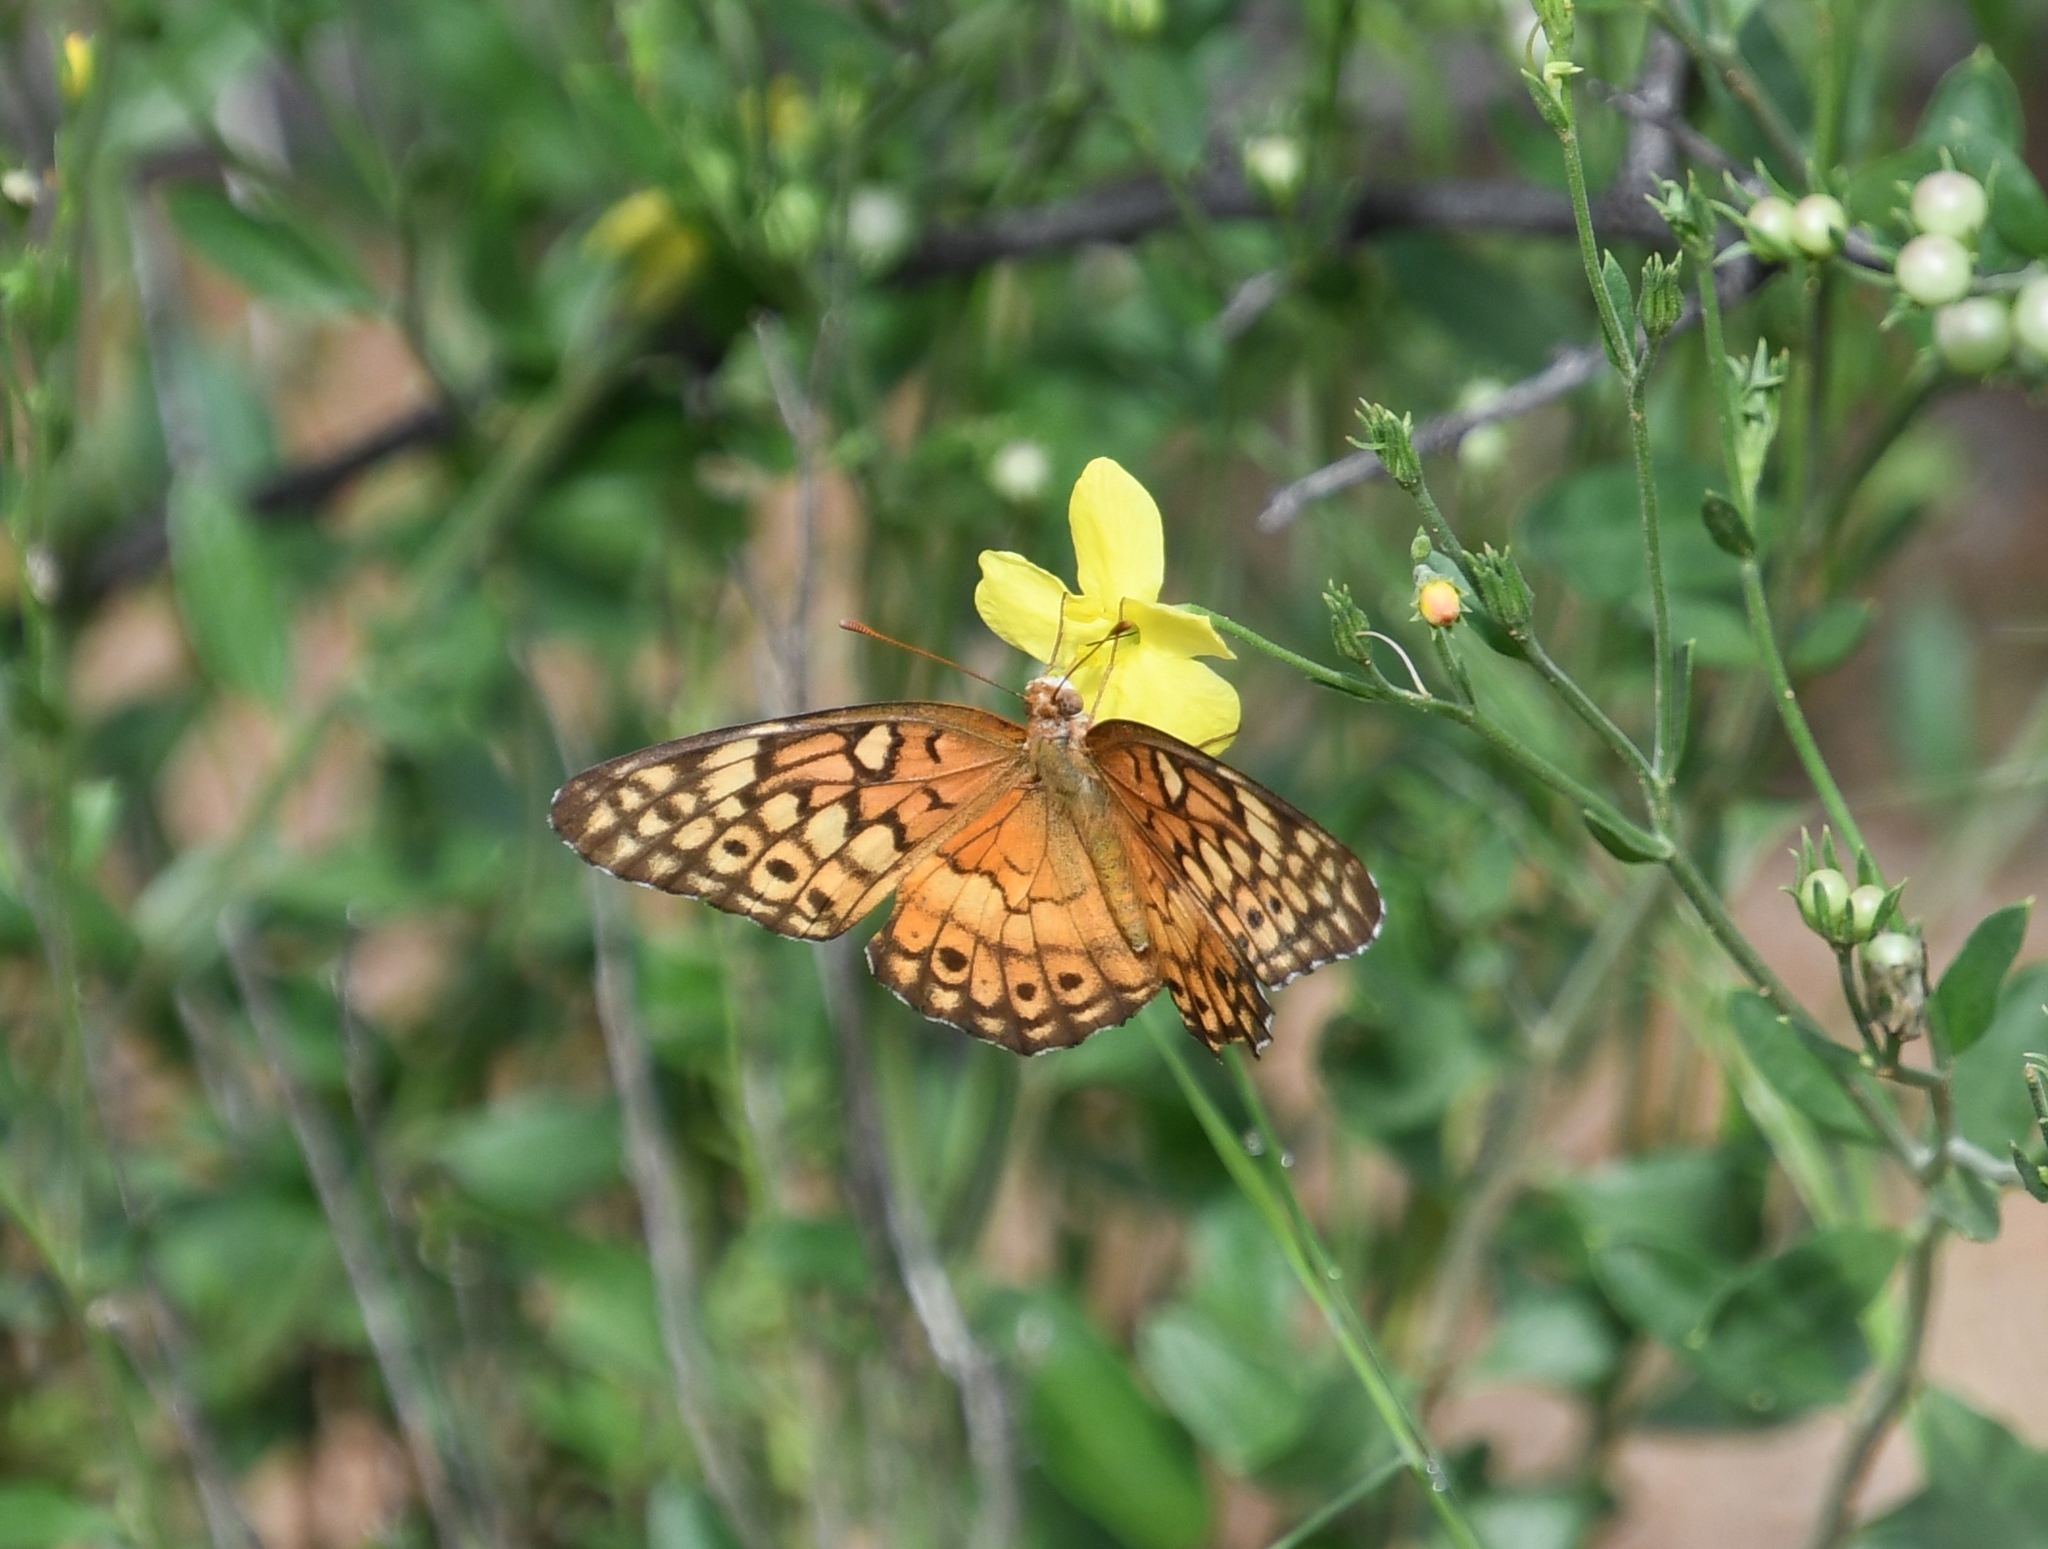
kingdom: Animalia
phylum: Arthropoda
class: Insecta
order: Lepidoptera
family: Nymphalidae
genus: Euptoieta
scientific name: Euptoieta claudia
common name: Variegated fritillary
